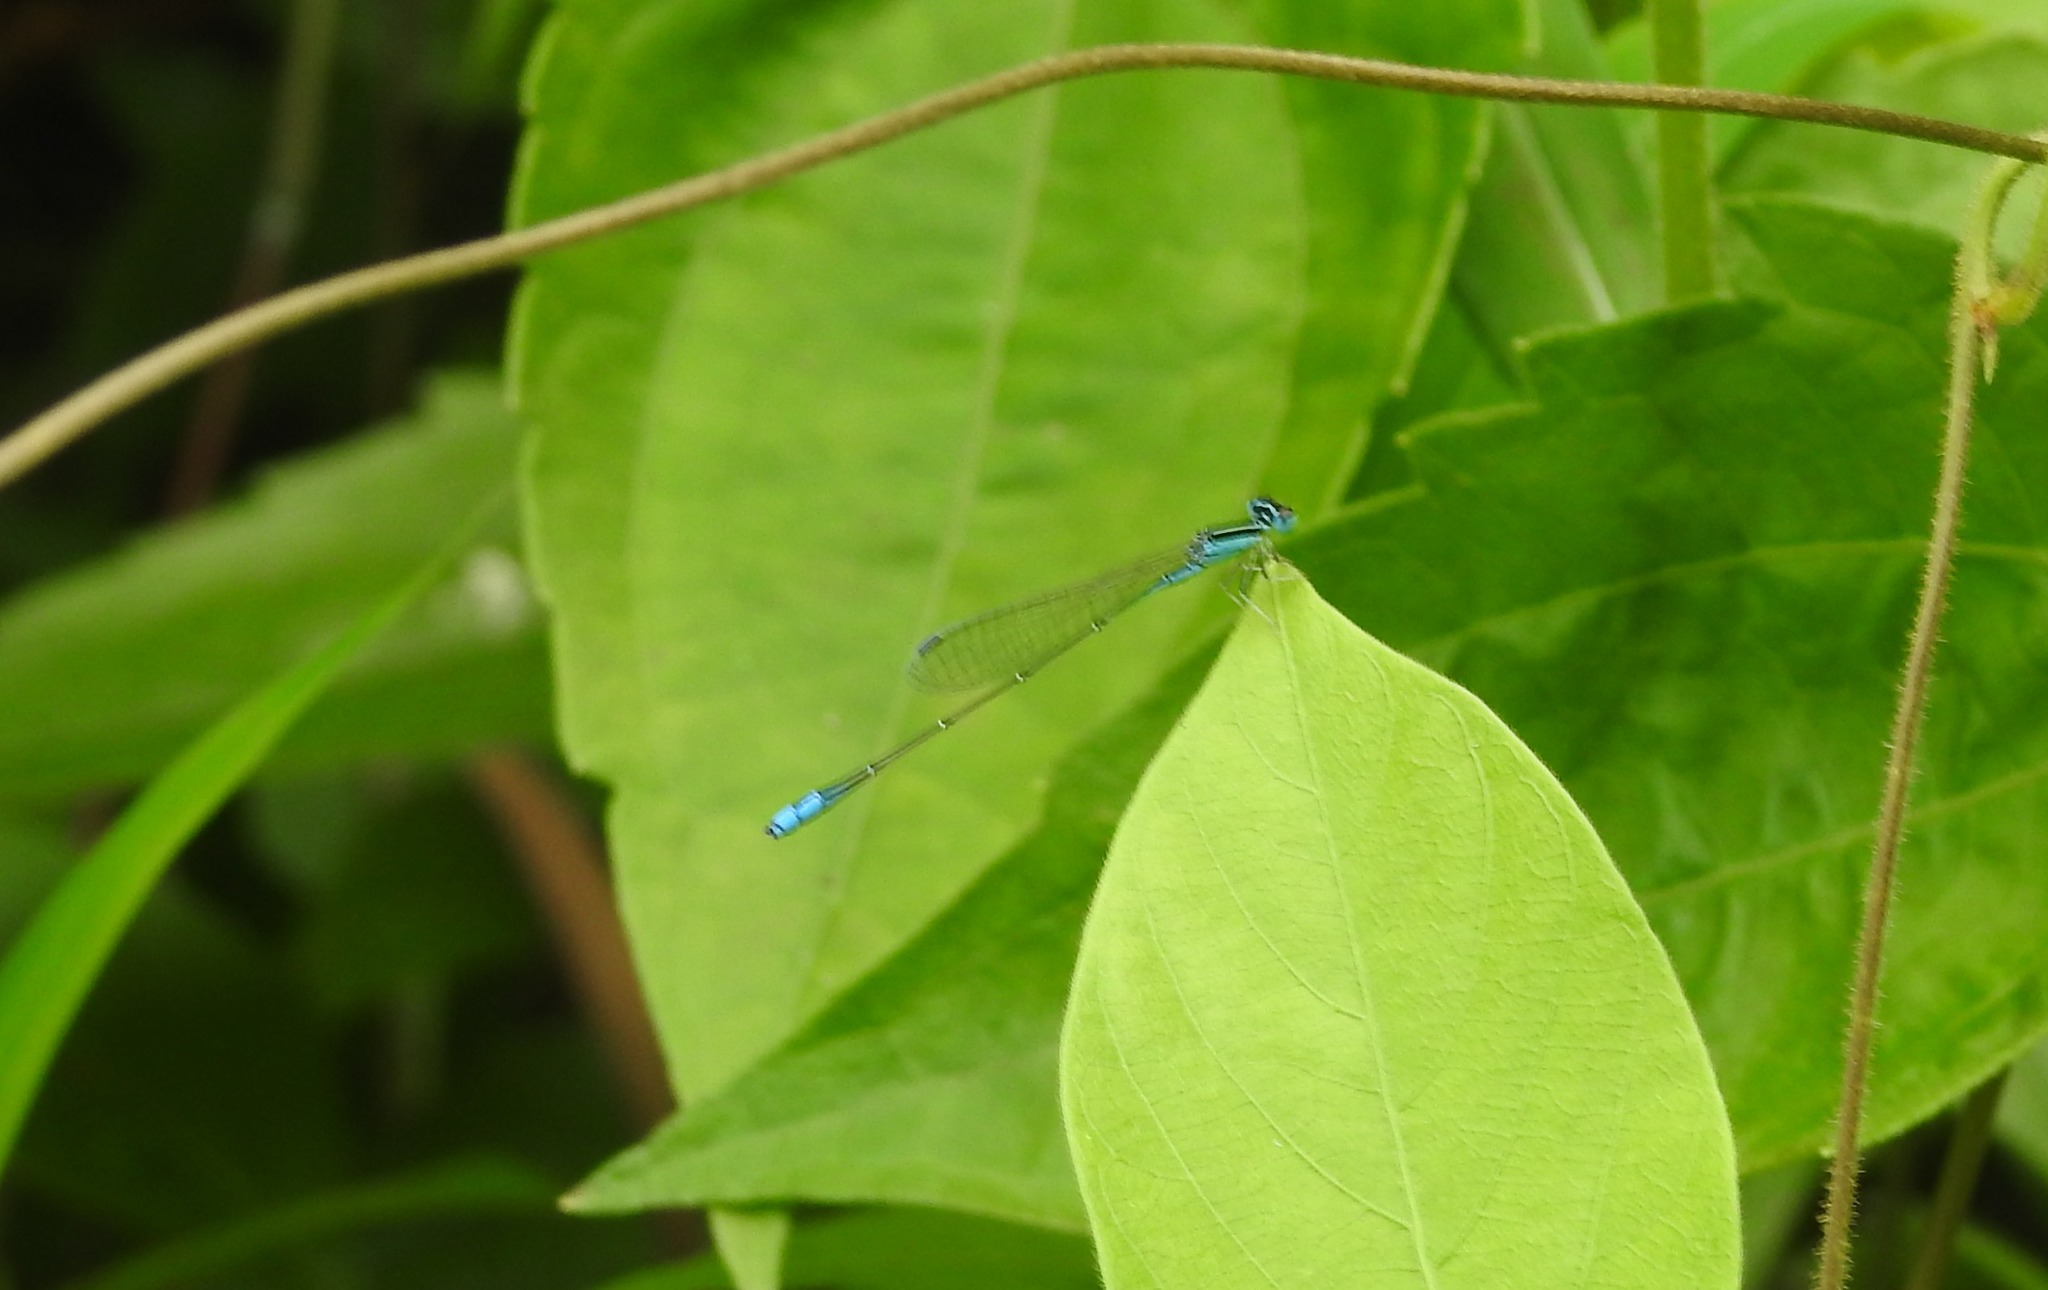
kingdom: Animalia
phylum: Arthropoda
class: Insecta
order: Odonata
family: Coenagrionidae
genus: Aciagrion
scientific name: Aciagrion occidentale
